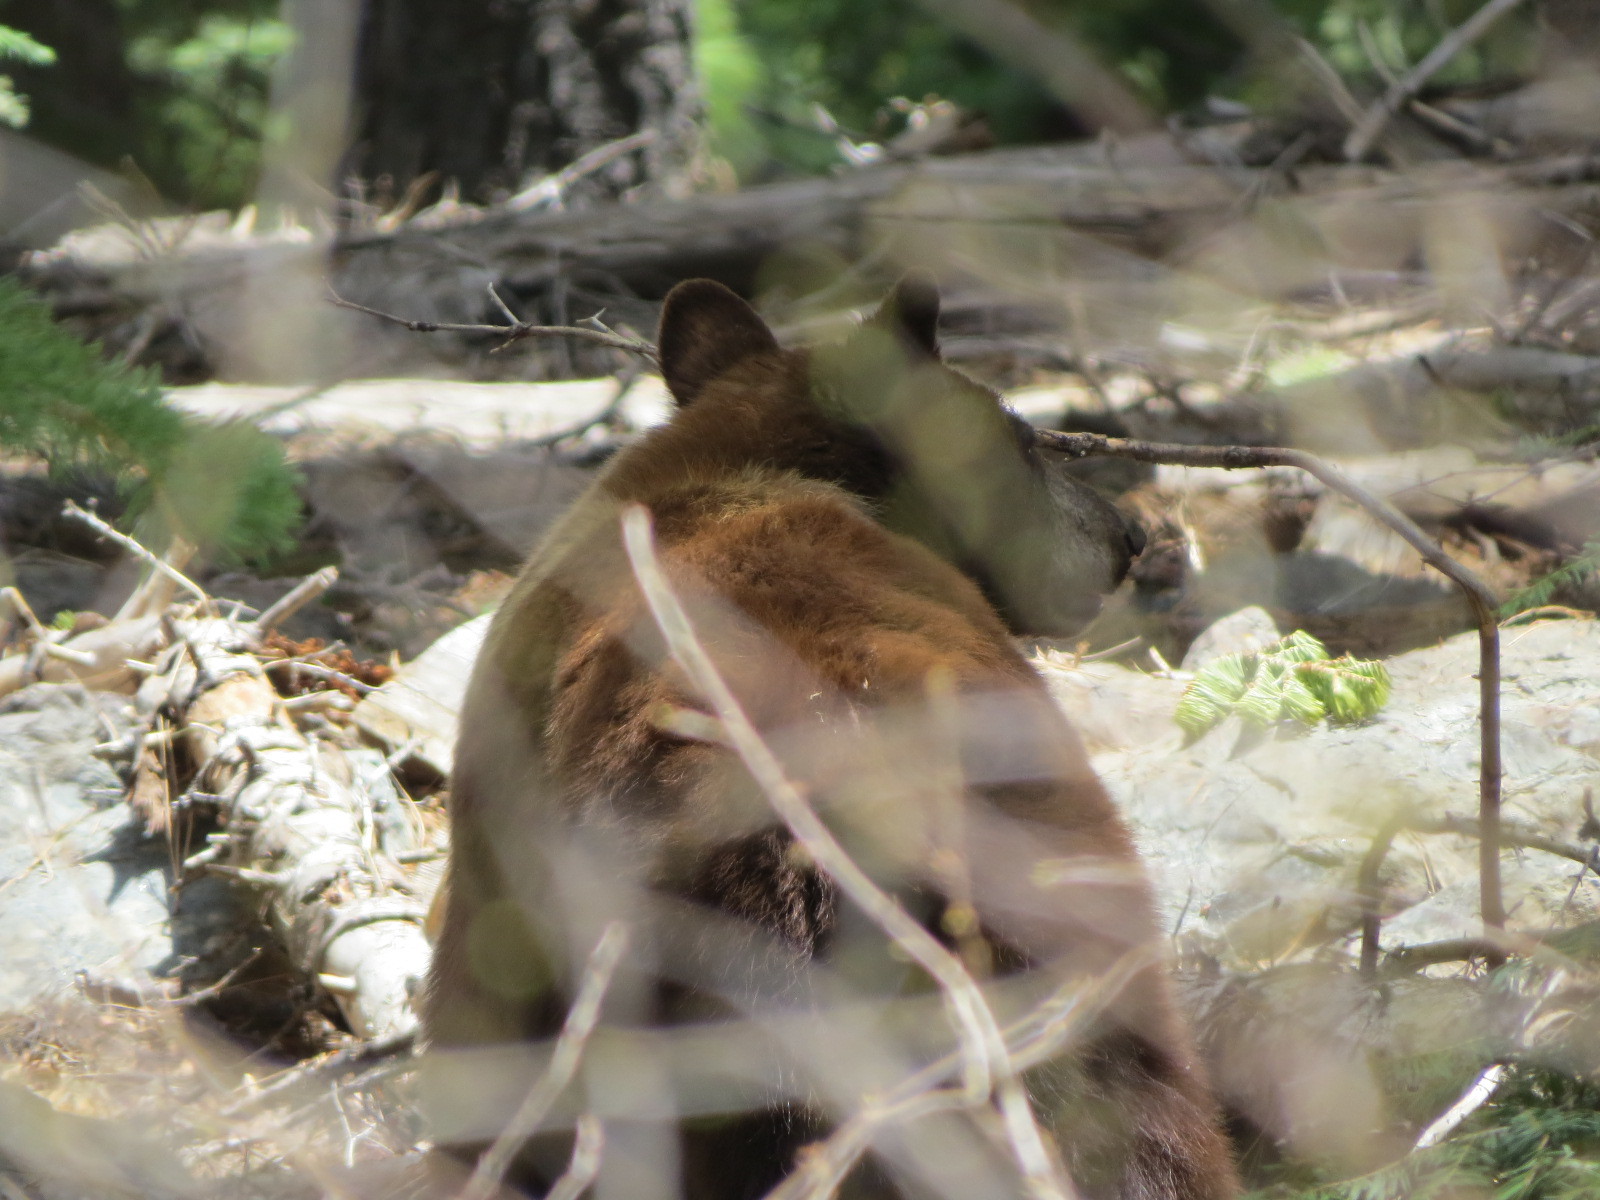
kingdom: Animalia
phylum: Chordata
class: Mammalia
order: Carnivora
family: Ursidae
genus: Ursus
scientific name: Ursus americanus
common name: American black bear
